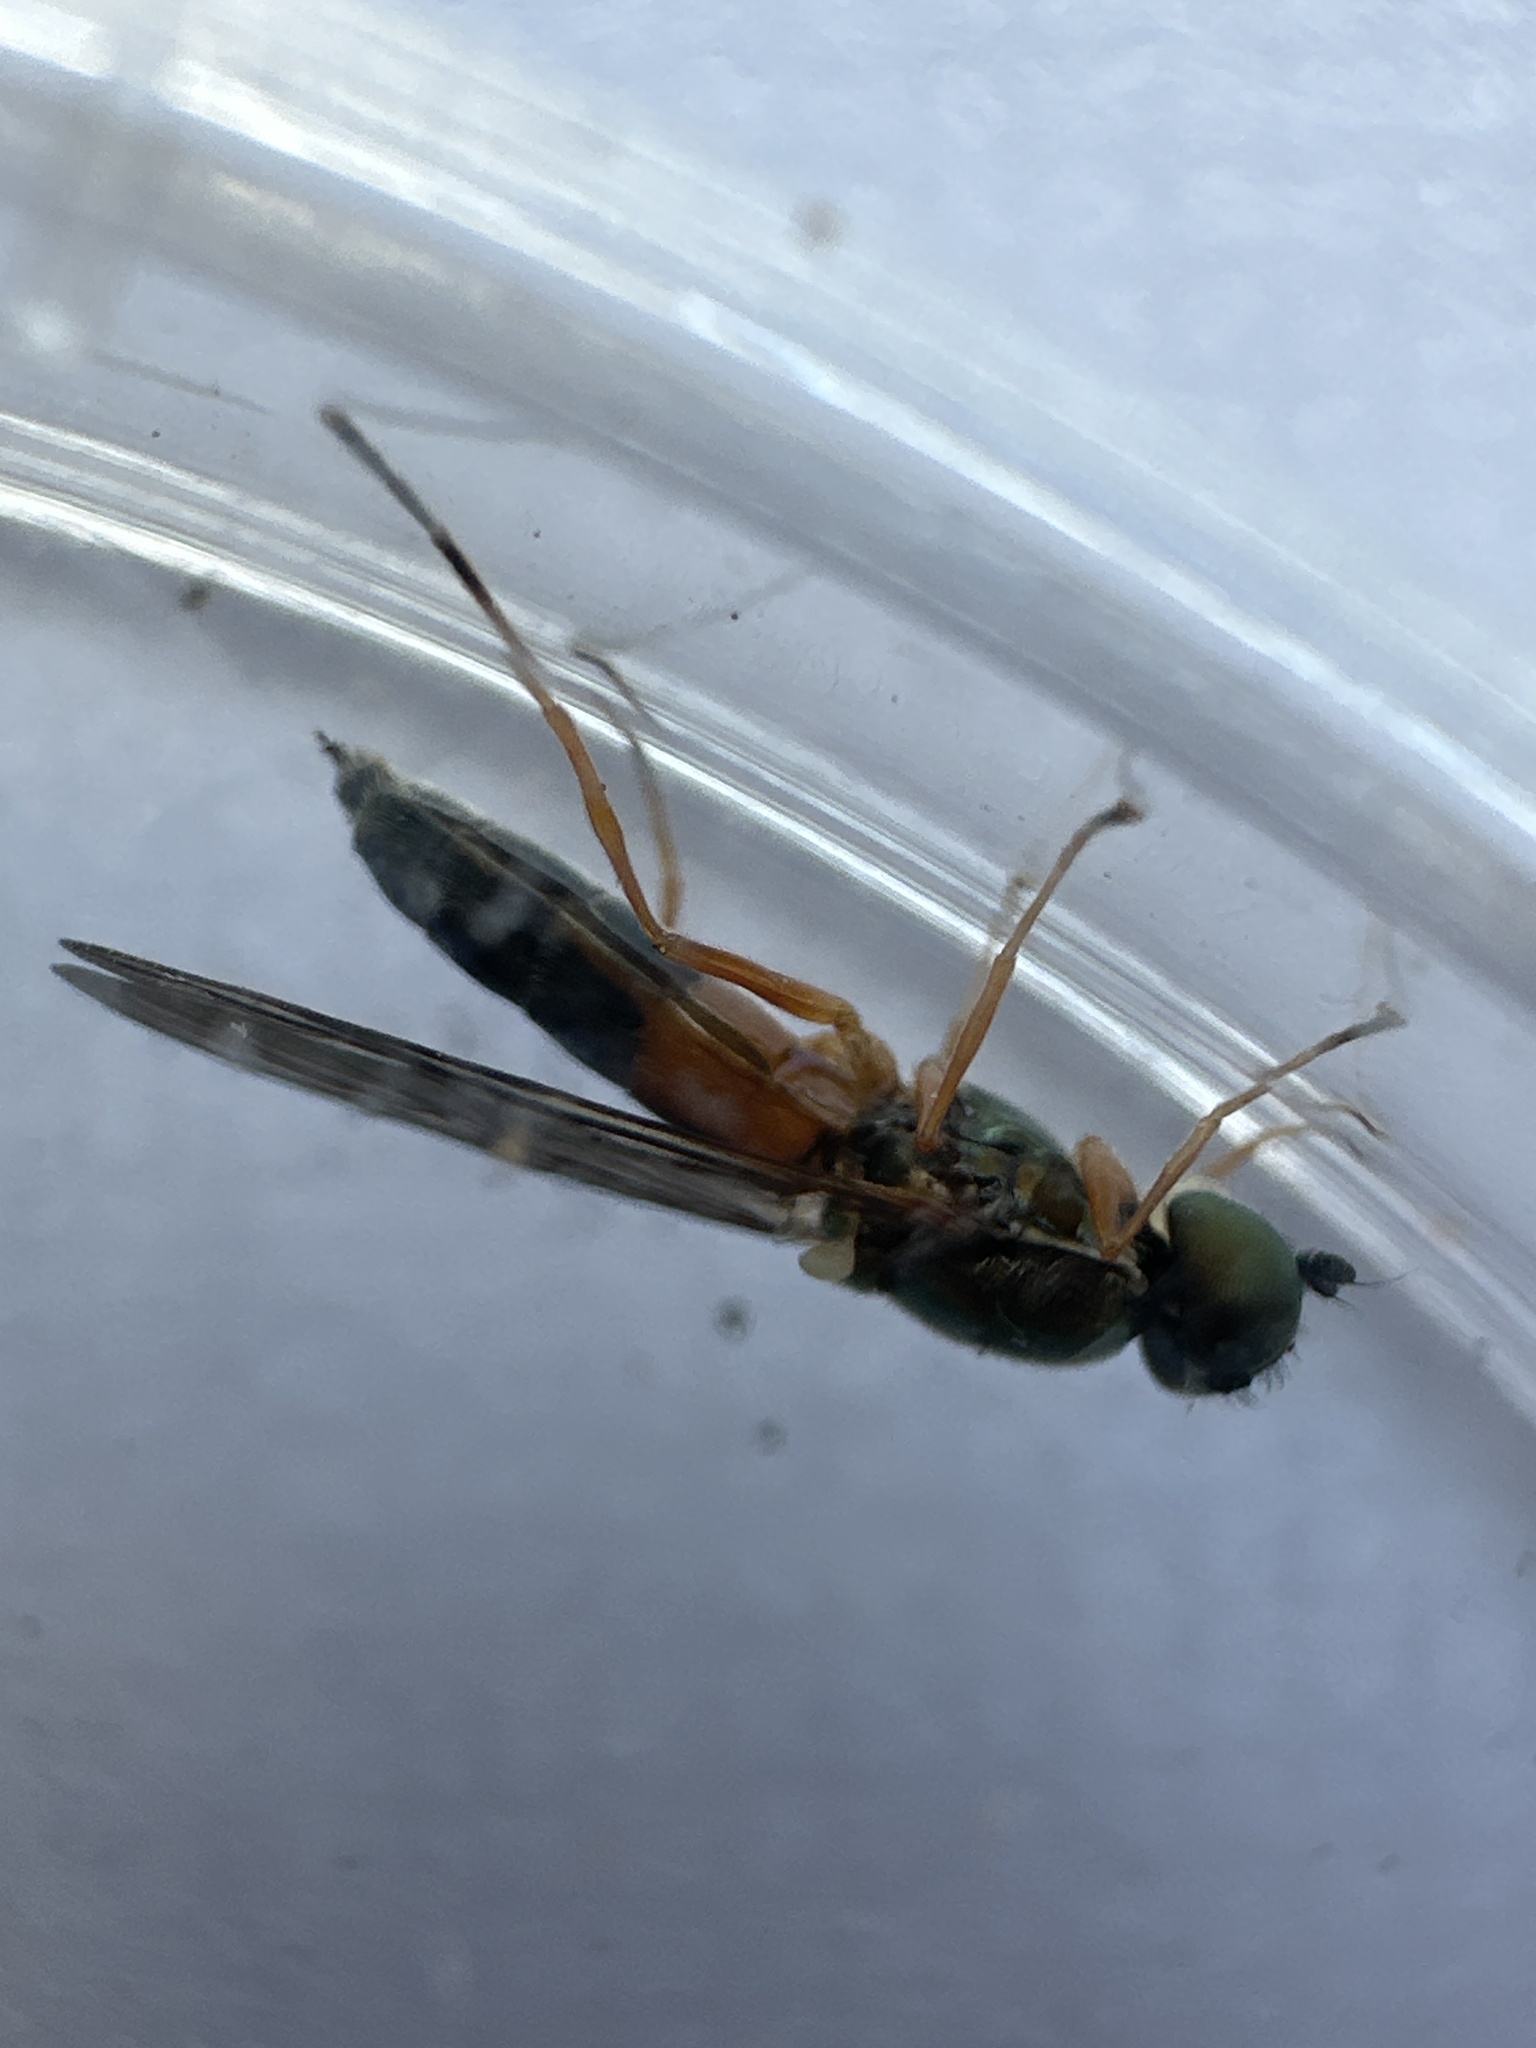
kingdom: Animalia
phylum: Arthropoda
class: Insecta
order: Diptera
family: Stratiomyidae
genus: Sargus
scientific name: Sargus bipunctatus
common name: Twin-spot centurion
